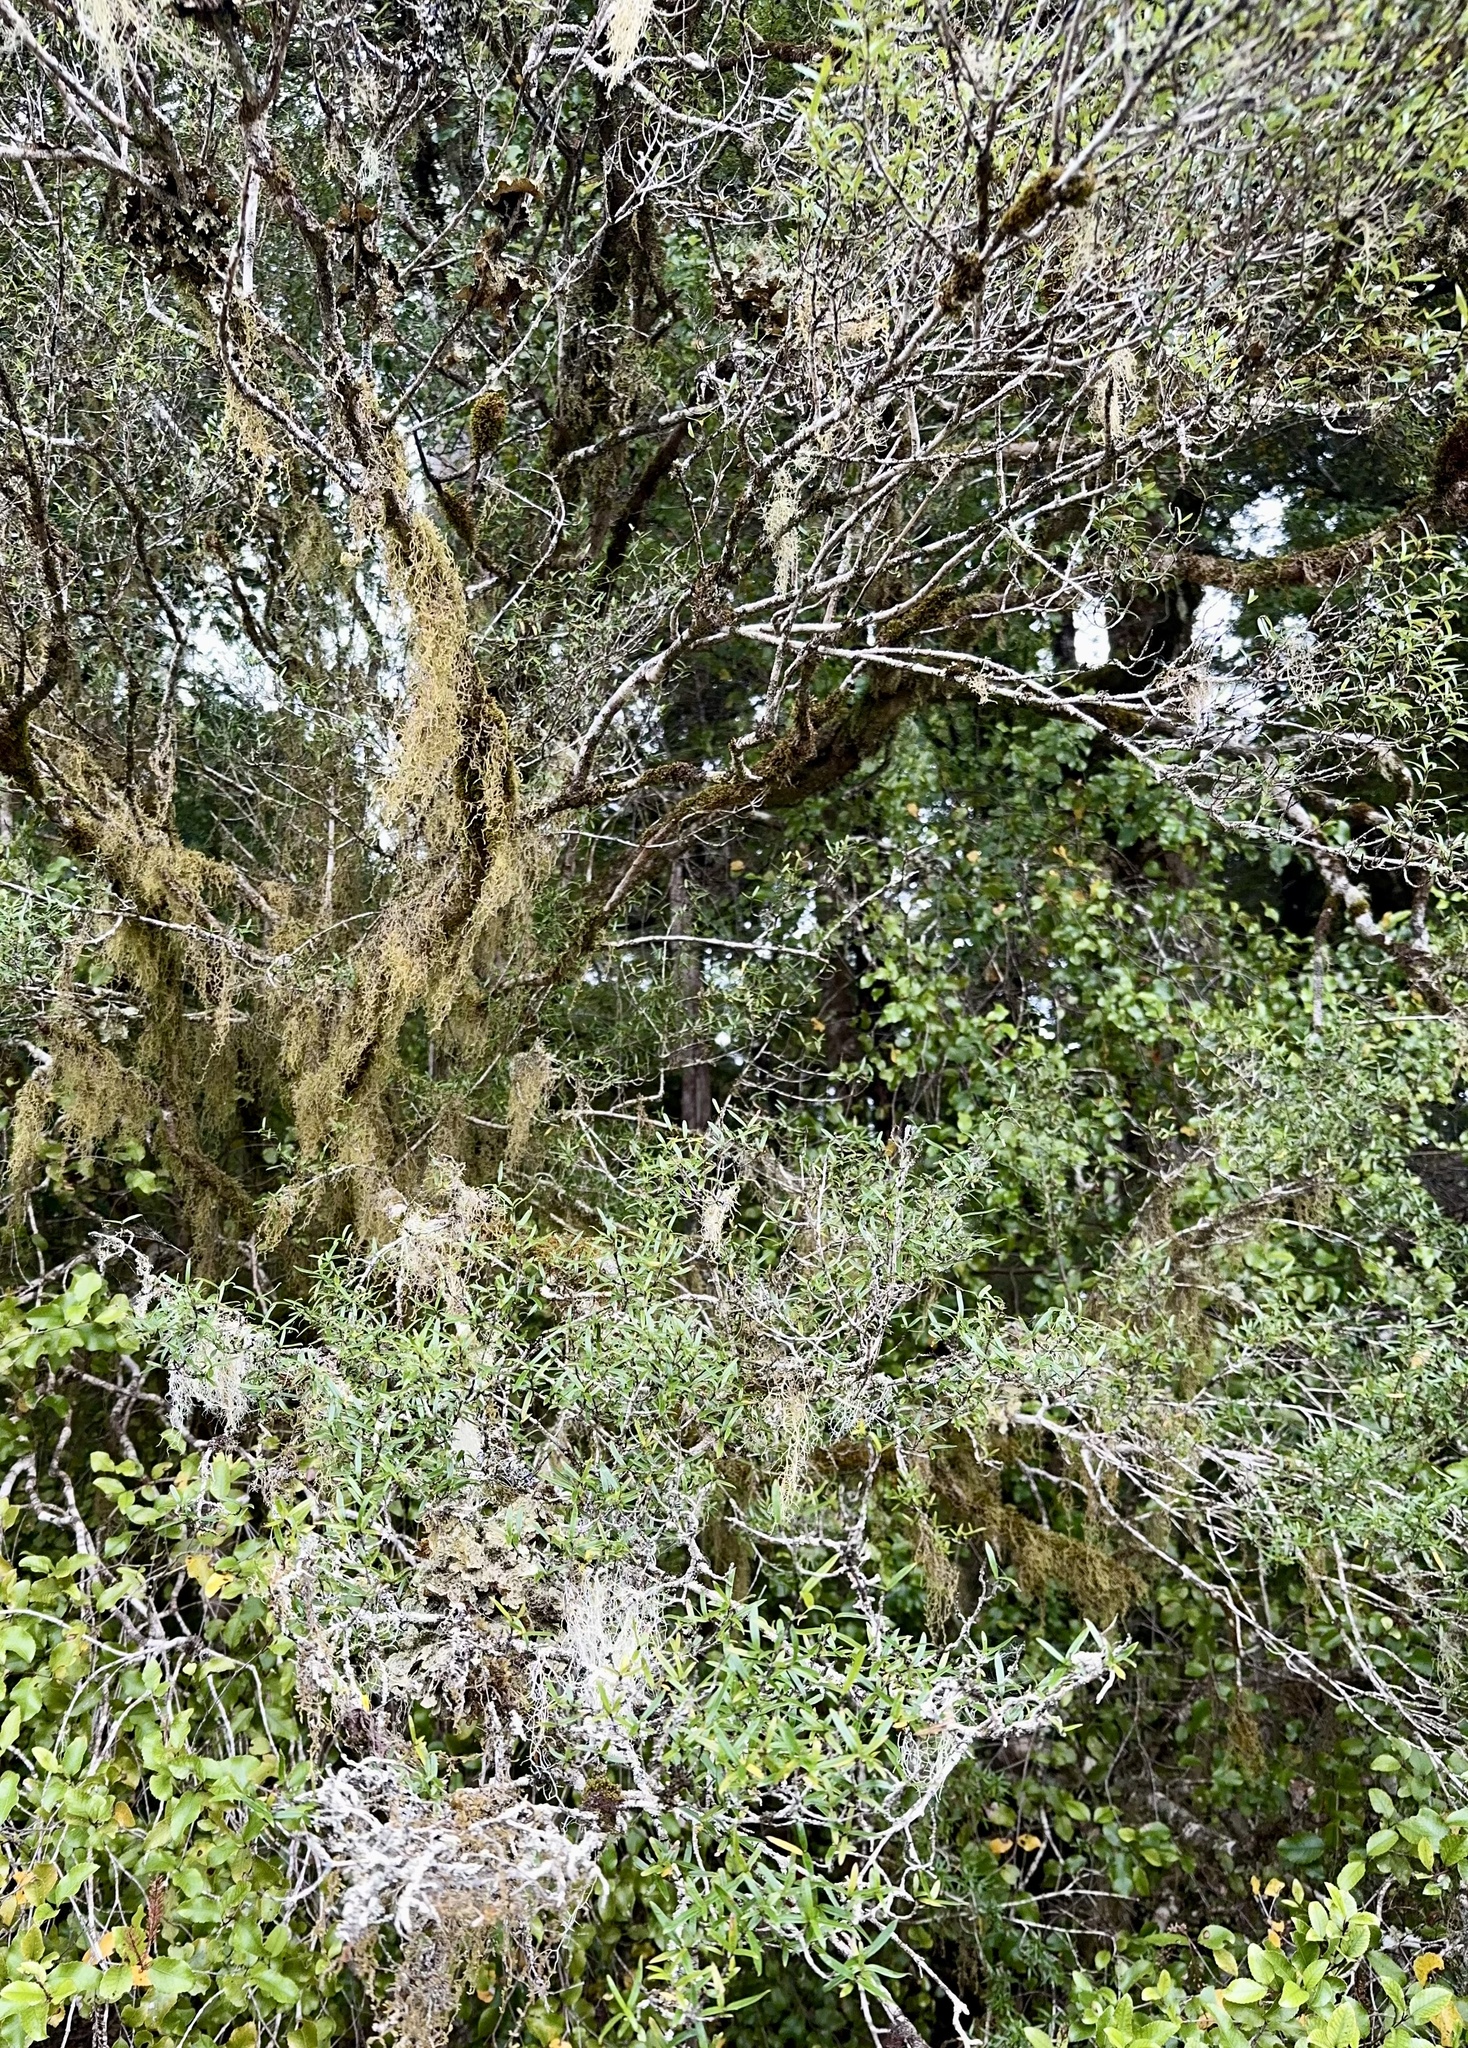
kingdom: Plantae
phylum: Tracheophyta
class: Magnoliopsida
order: Gentianales
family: Rubiaceae
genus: Coprosma
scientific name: Coprosma linariifolia
